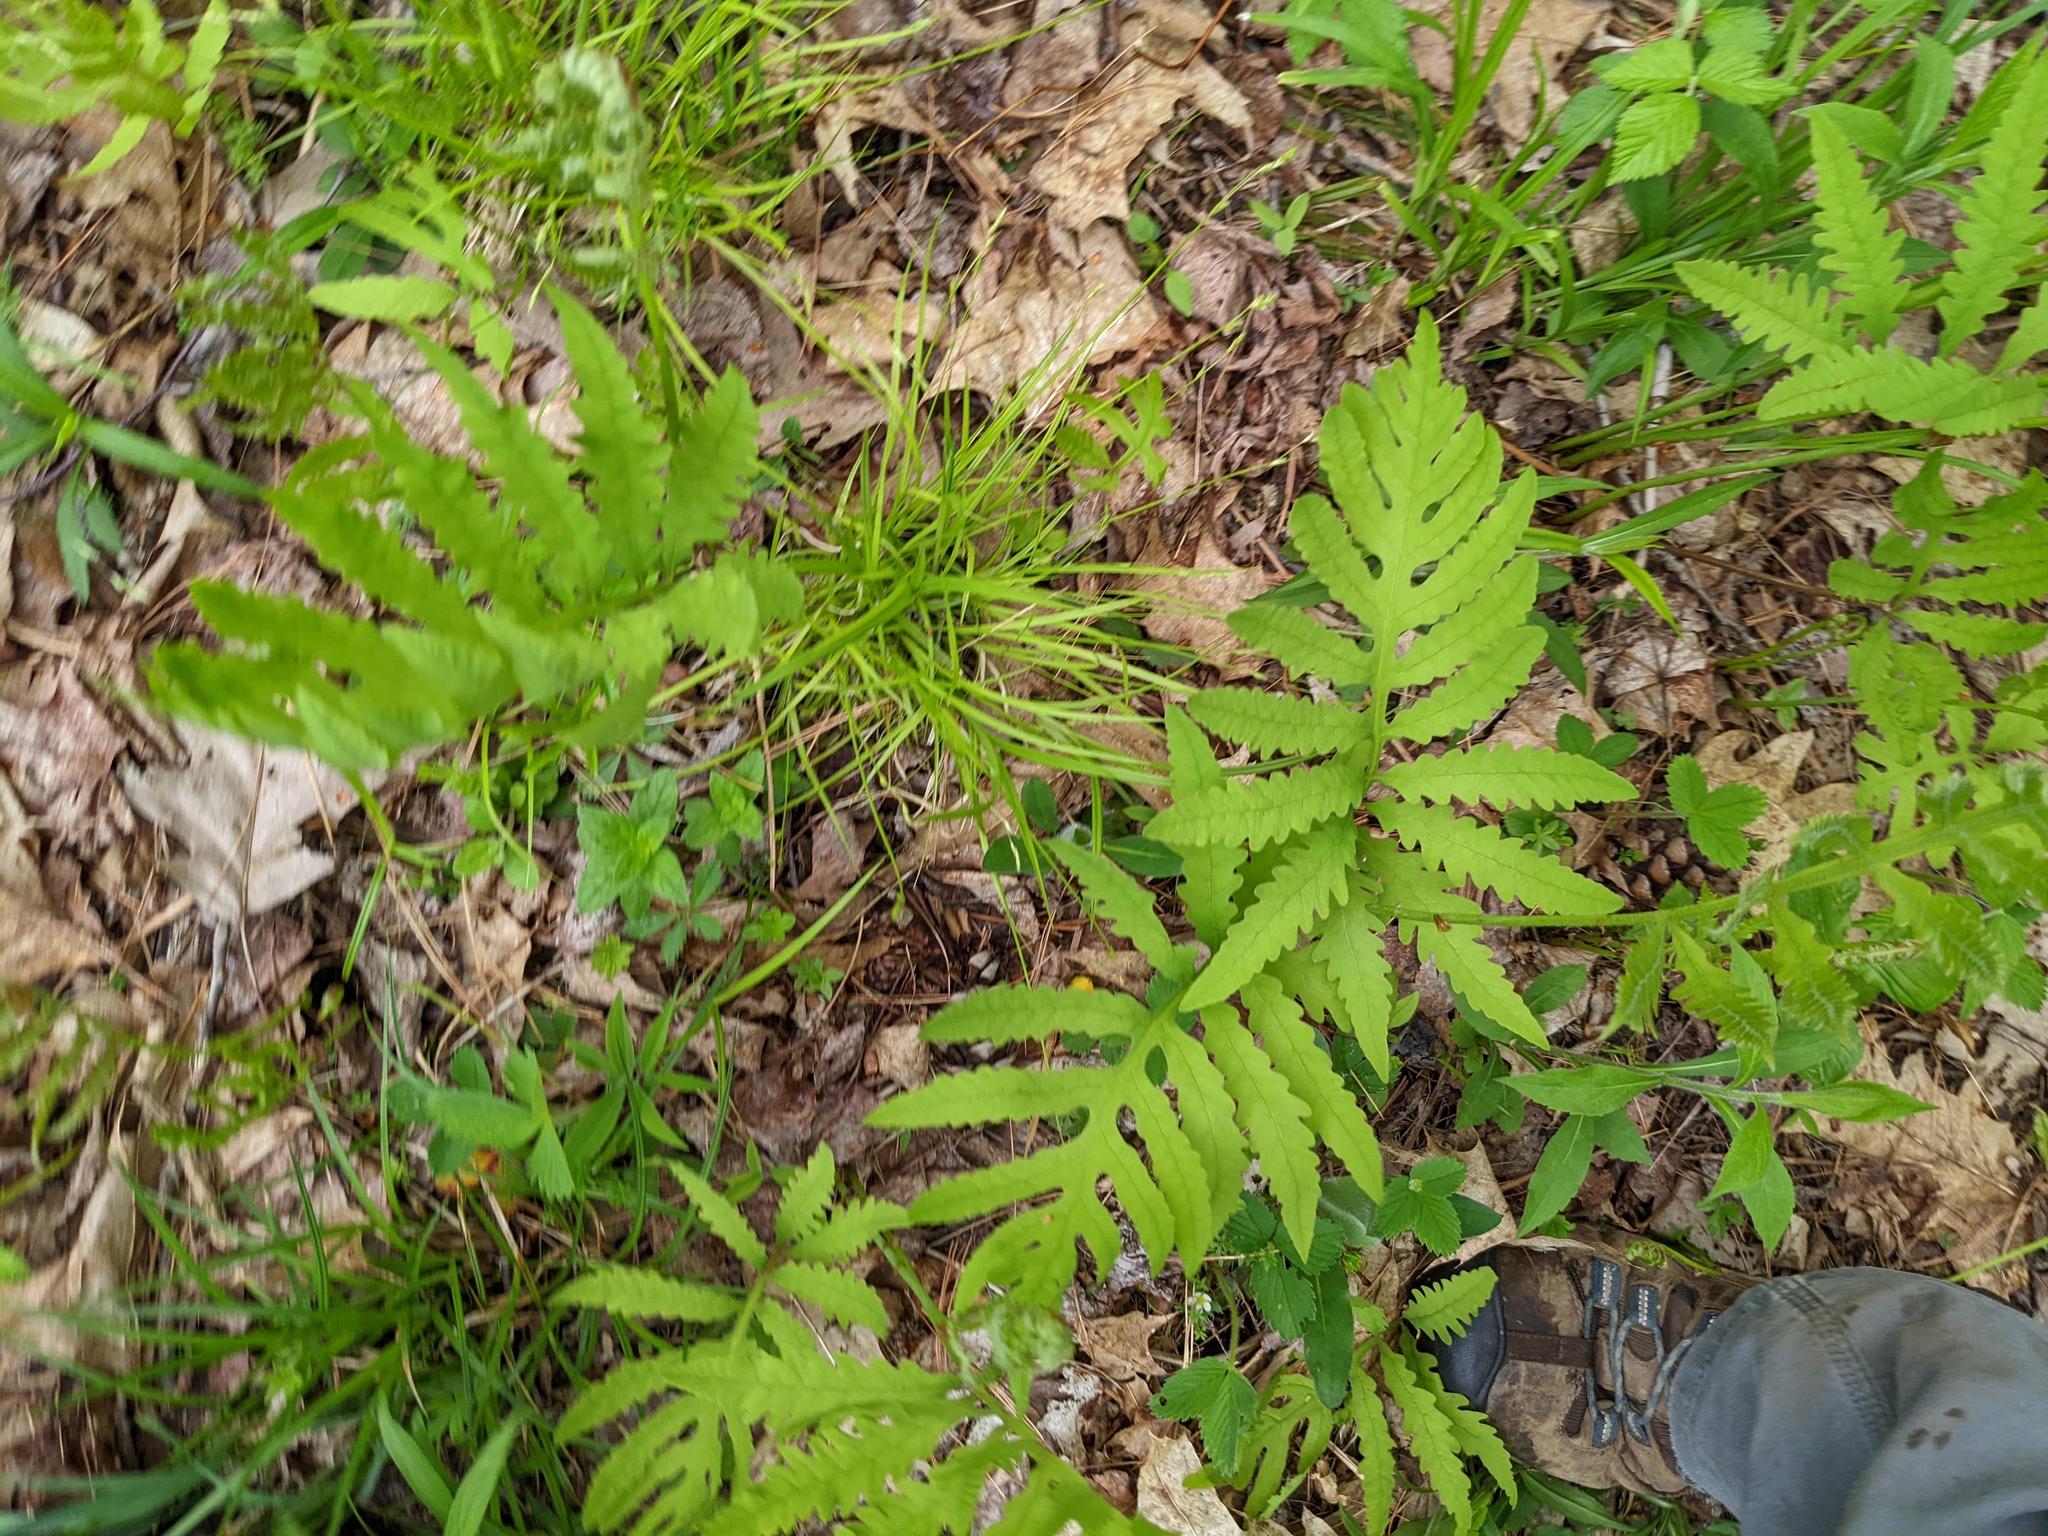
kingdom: Plantae
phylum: Tracheophyta
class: Polypodiopsida
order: Polypodiales
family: Onocleaceae
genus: Onoclea
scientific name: Onoclea sensibilis
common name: Sensitive fern
